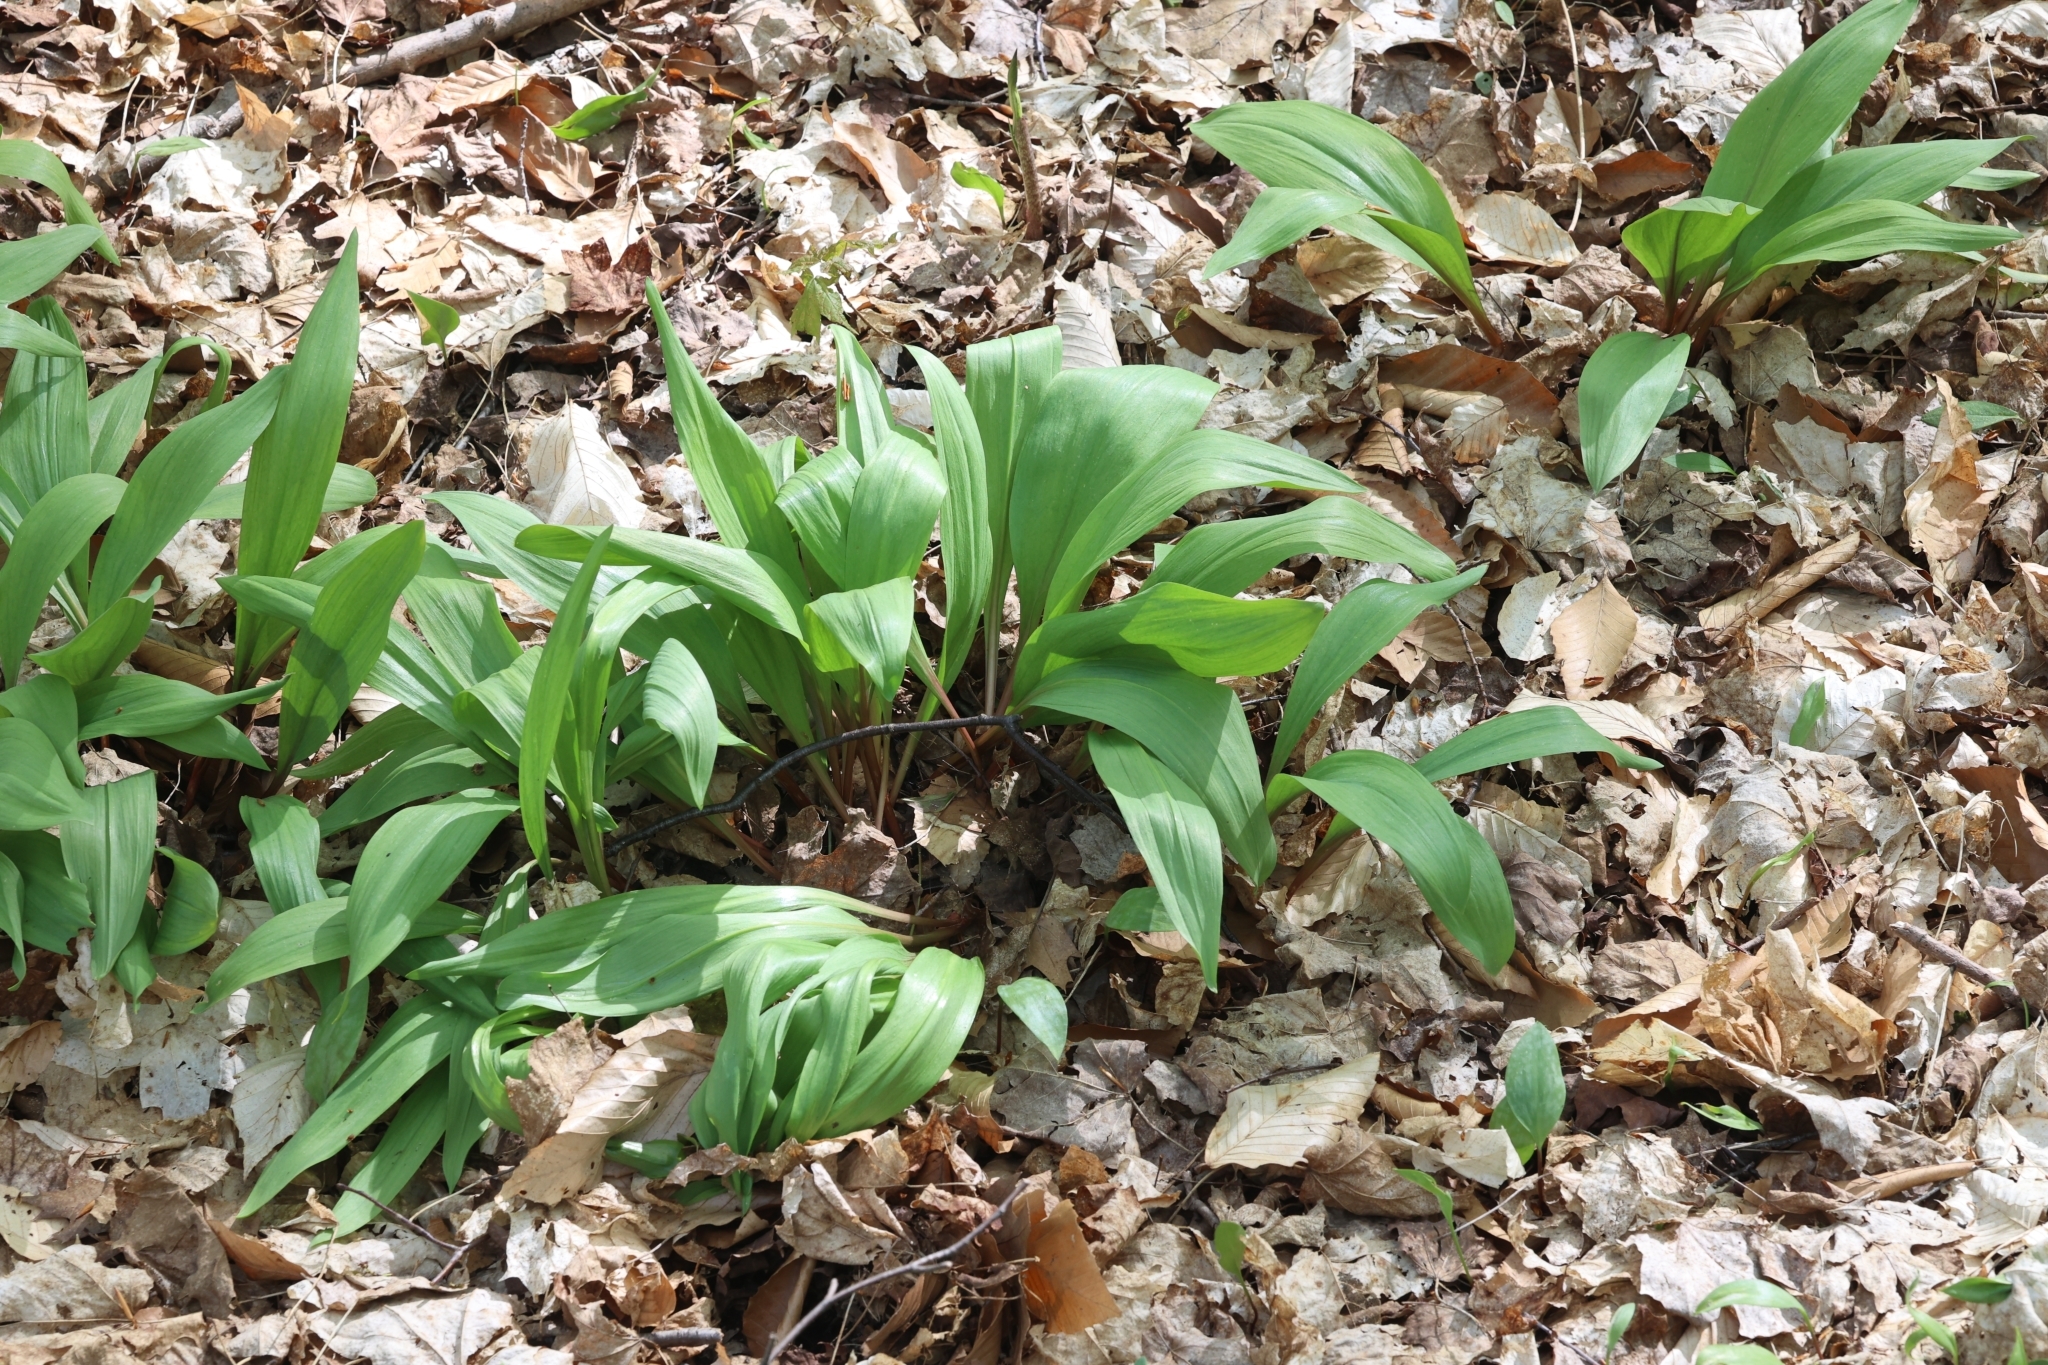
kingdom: Plantae
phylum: Tracheophyta
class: Liliopsida
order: Asparagales
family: Amaryllidaceae
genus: Allium
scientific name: Allium tricoccum
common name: Ramp
